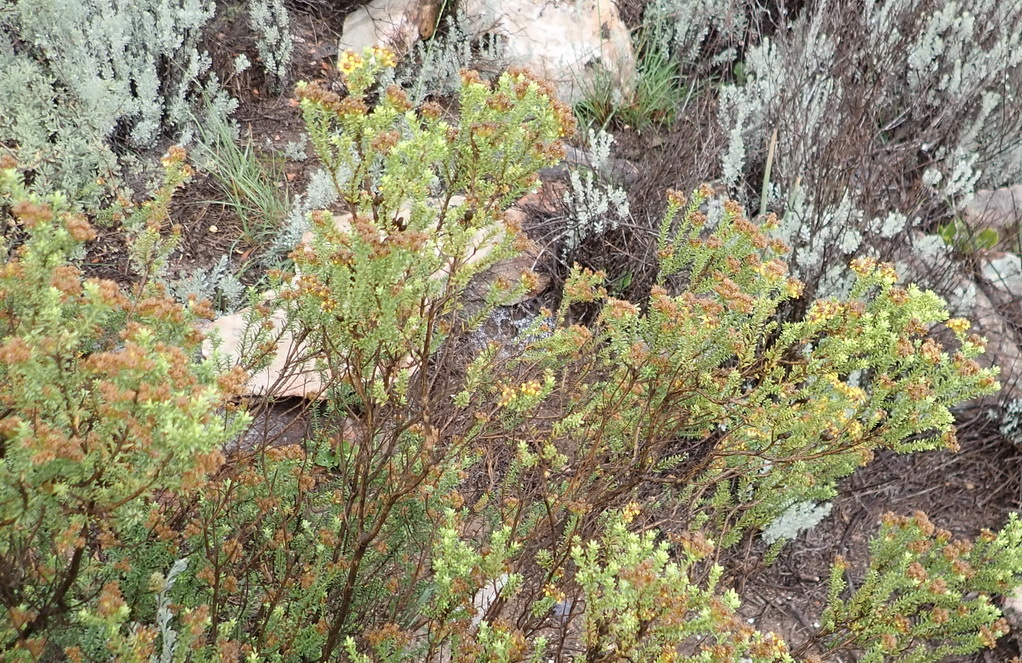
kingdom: Plantae
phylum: Tracheophyta
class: Magnoliopsida
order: Asterales
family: Asteraceae
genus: Oedera
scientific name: Oedera genistifolia
